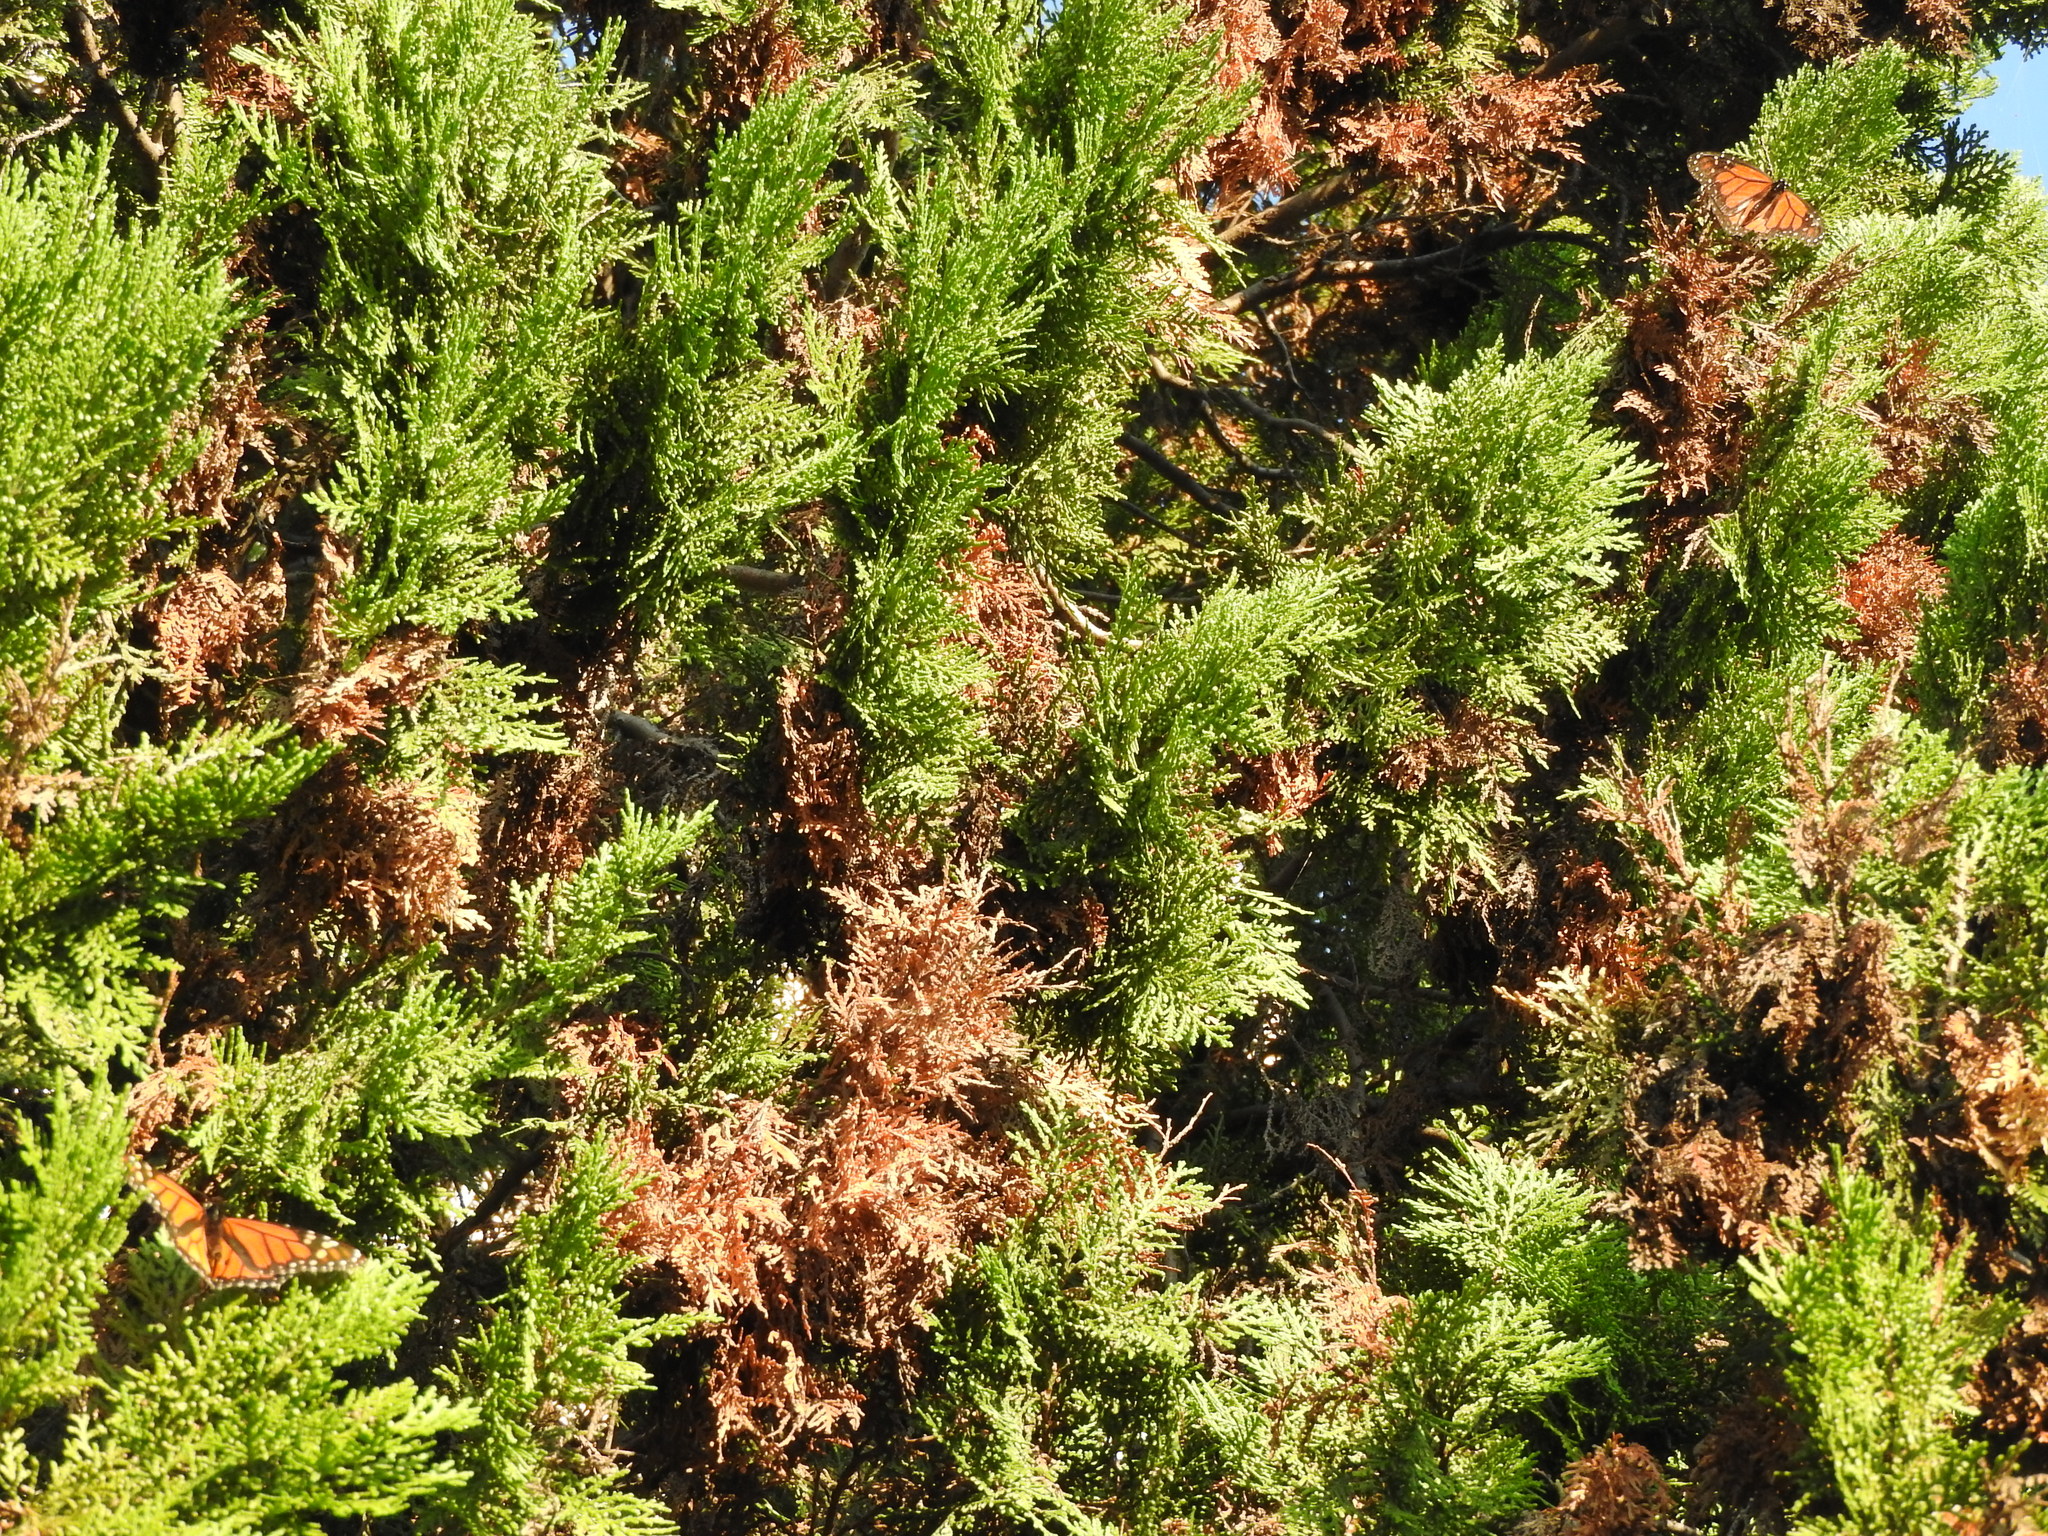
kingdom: Animalia
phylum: Arthropoda
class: Insecta
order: Lepidoptera
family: Nymphalidae
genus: Danaus
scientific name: Danaus plexippus
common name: Monarch
